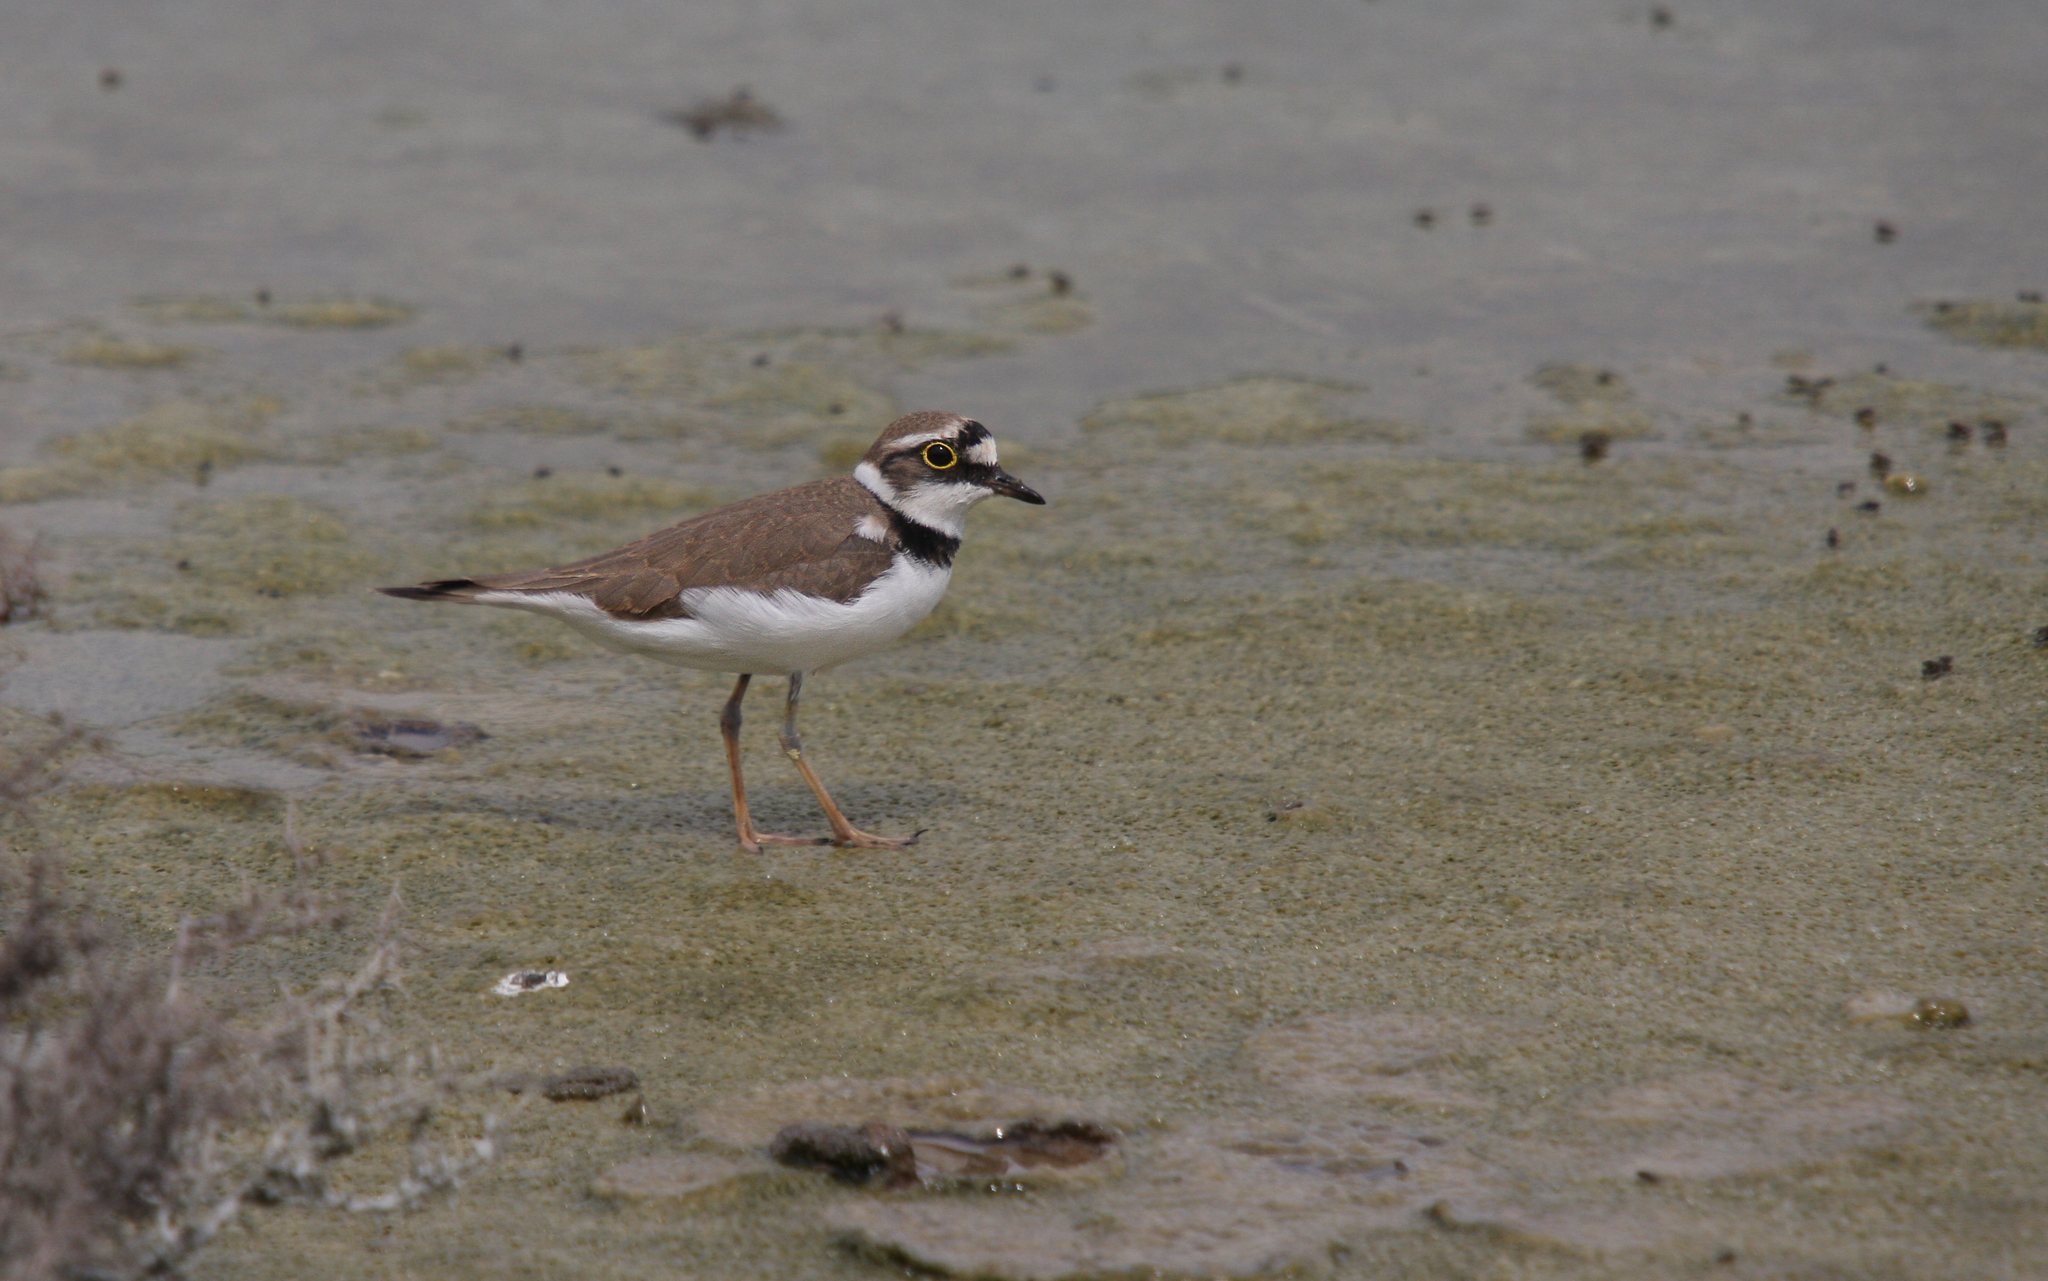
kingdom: Animalia
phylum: Chordata
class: Aves
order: Charadriiformes
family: Charadriidae
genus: Charadrius
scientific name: Charadrius dubius
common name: Little ringed plover
